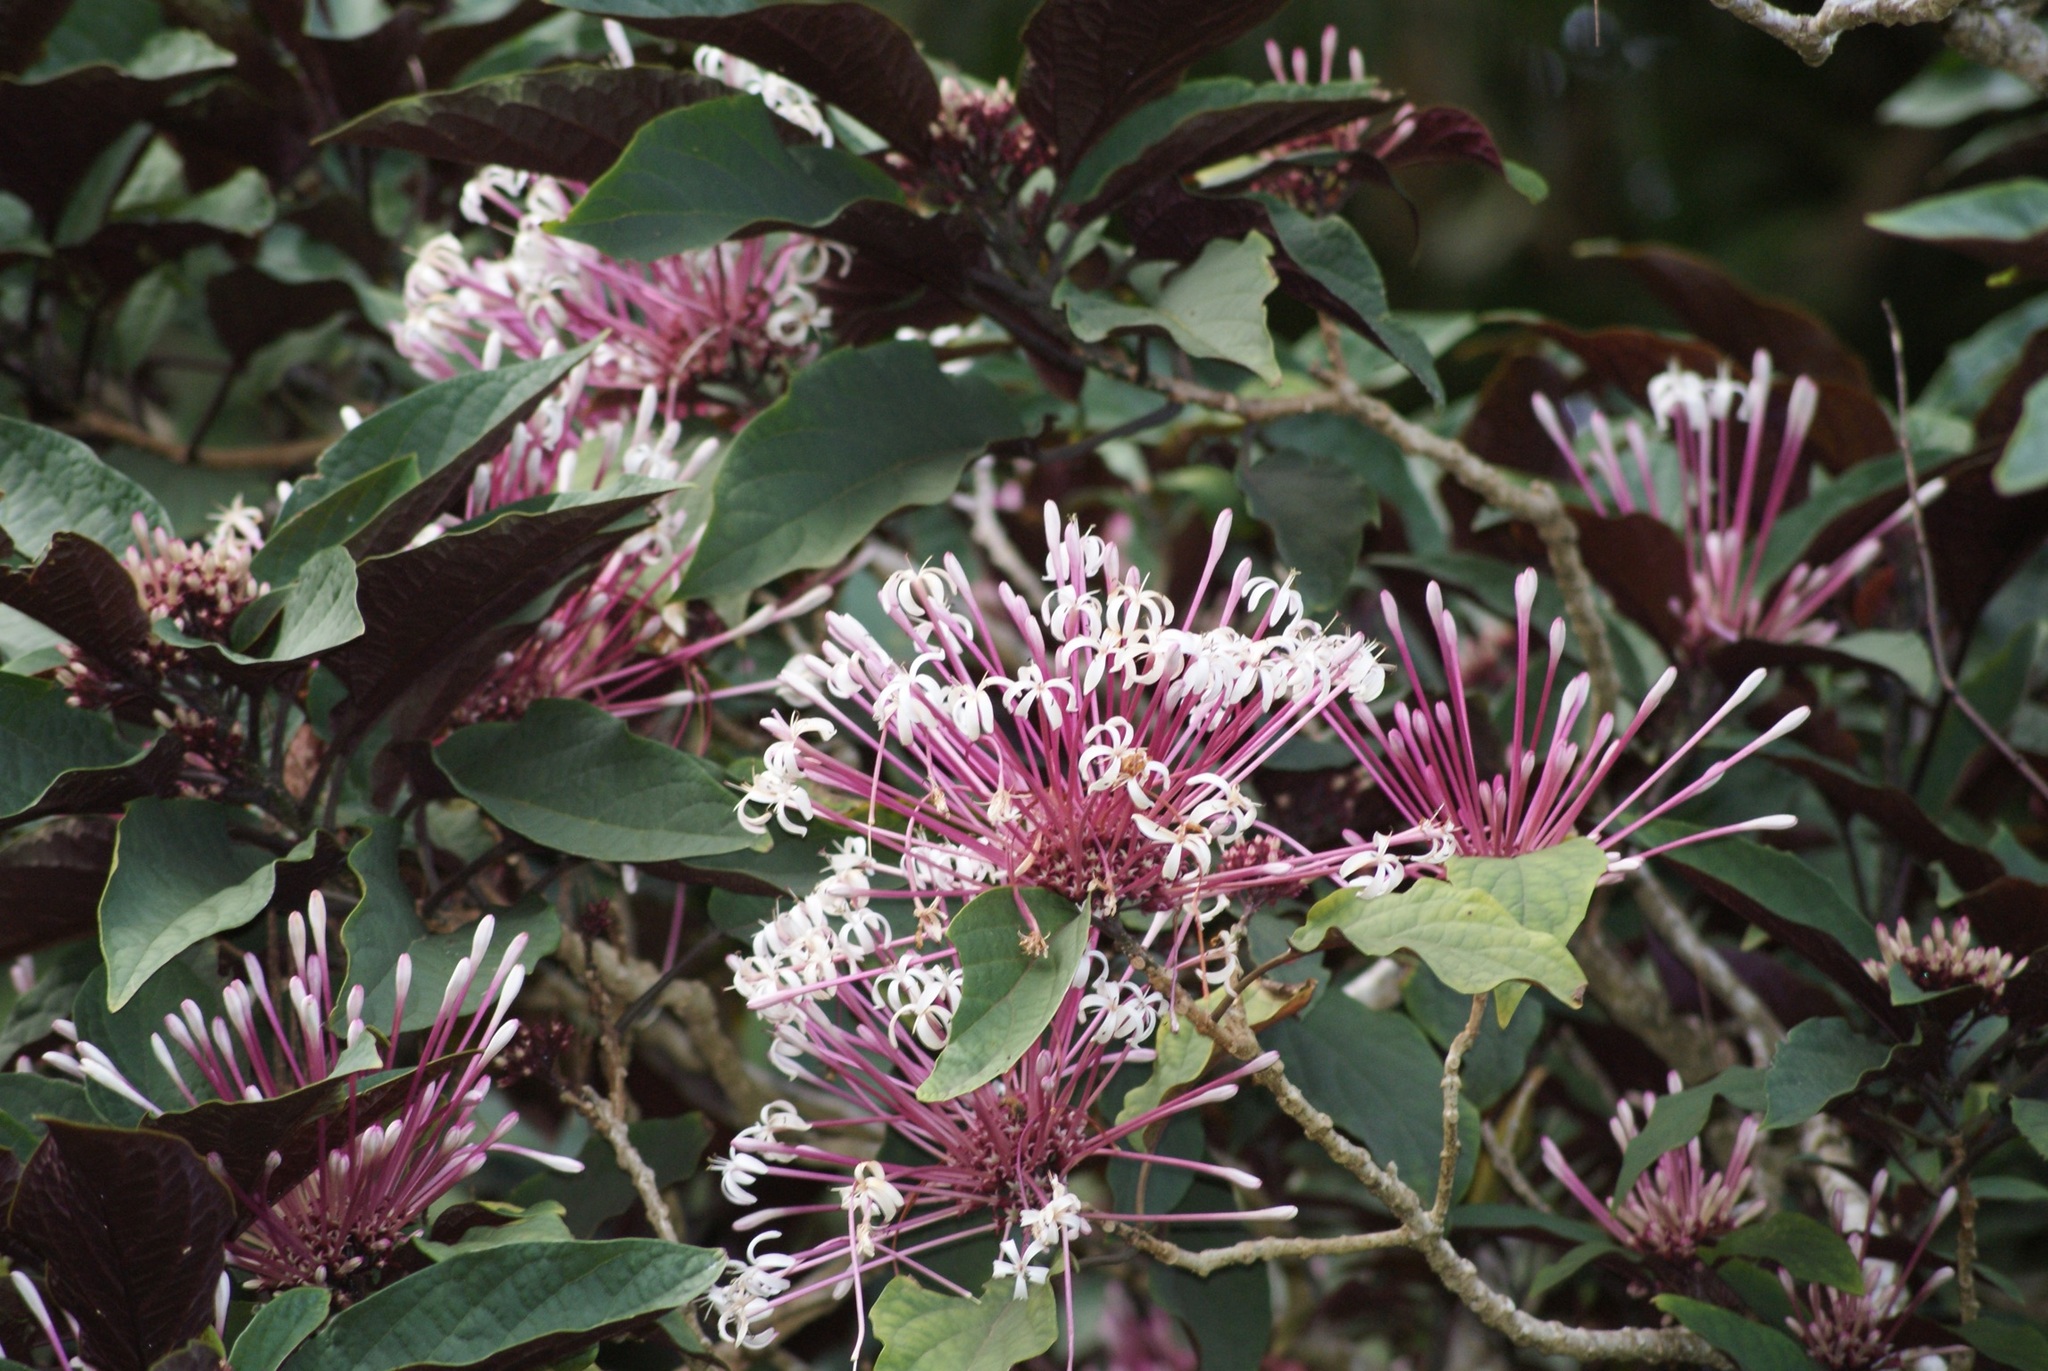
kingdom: Plantae
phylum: Tracheophyta
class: Magnoliopsida
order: Lamiales
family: Lamiaceae
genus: Clerodendrum
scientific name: Clerodendrum quadriloculare
